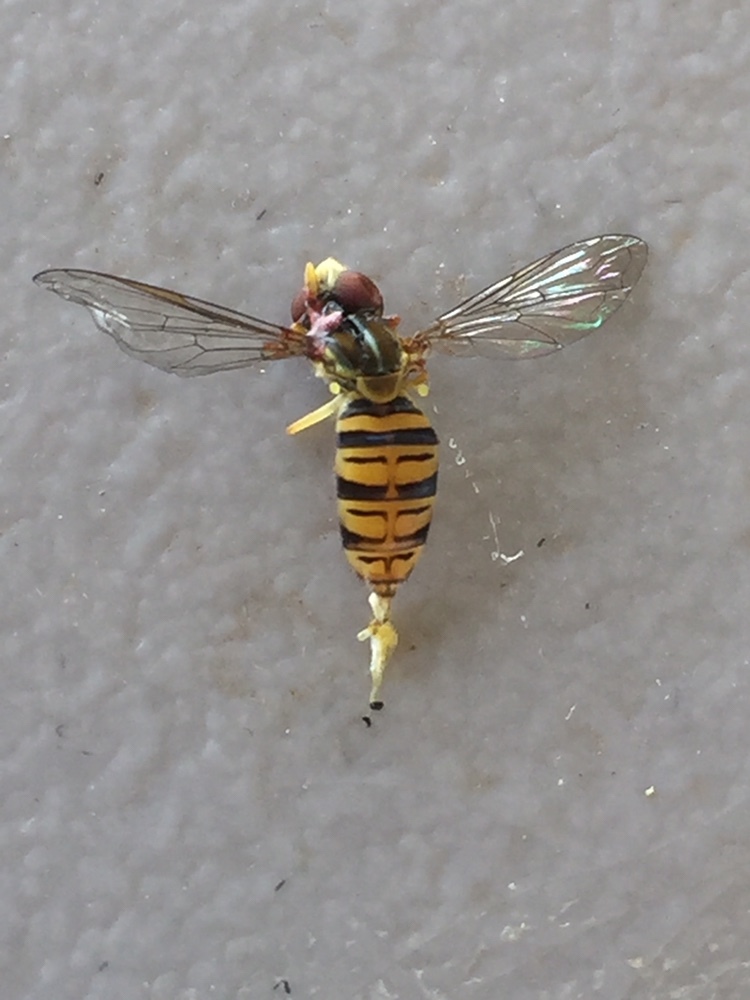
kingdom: Animalia
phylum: Arthropoda
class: Insecta
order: Diptera
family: Syrphidae
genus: Toxomerus
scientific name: Toxomerus politus
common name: Maize calligrapher
